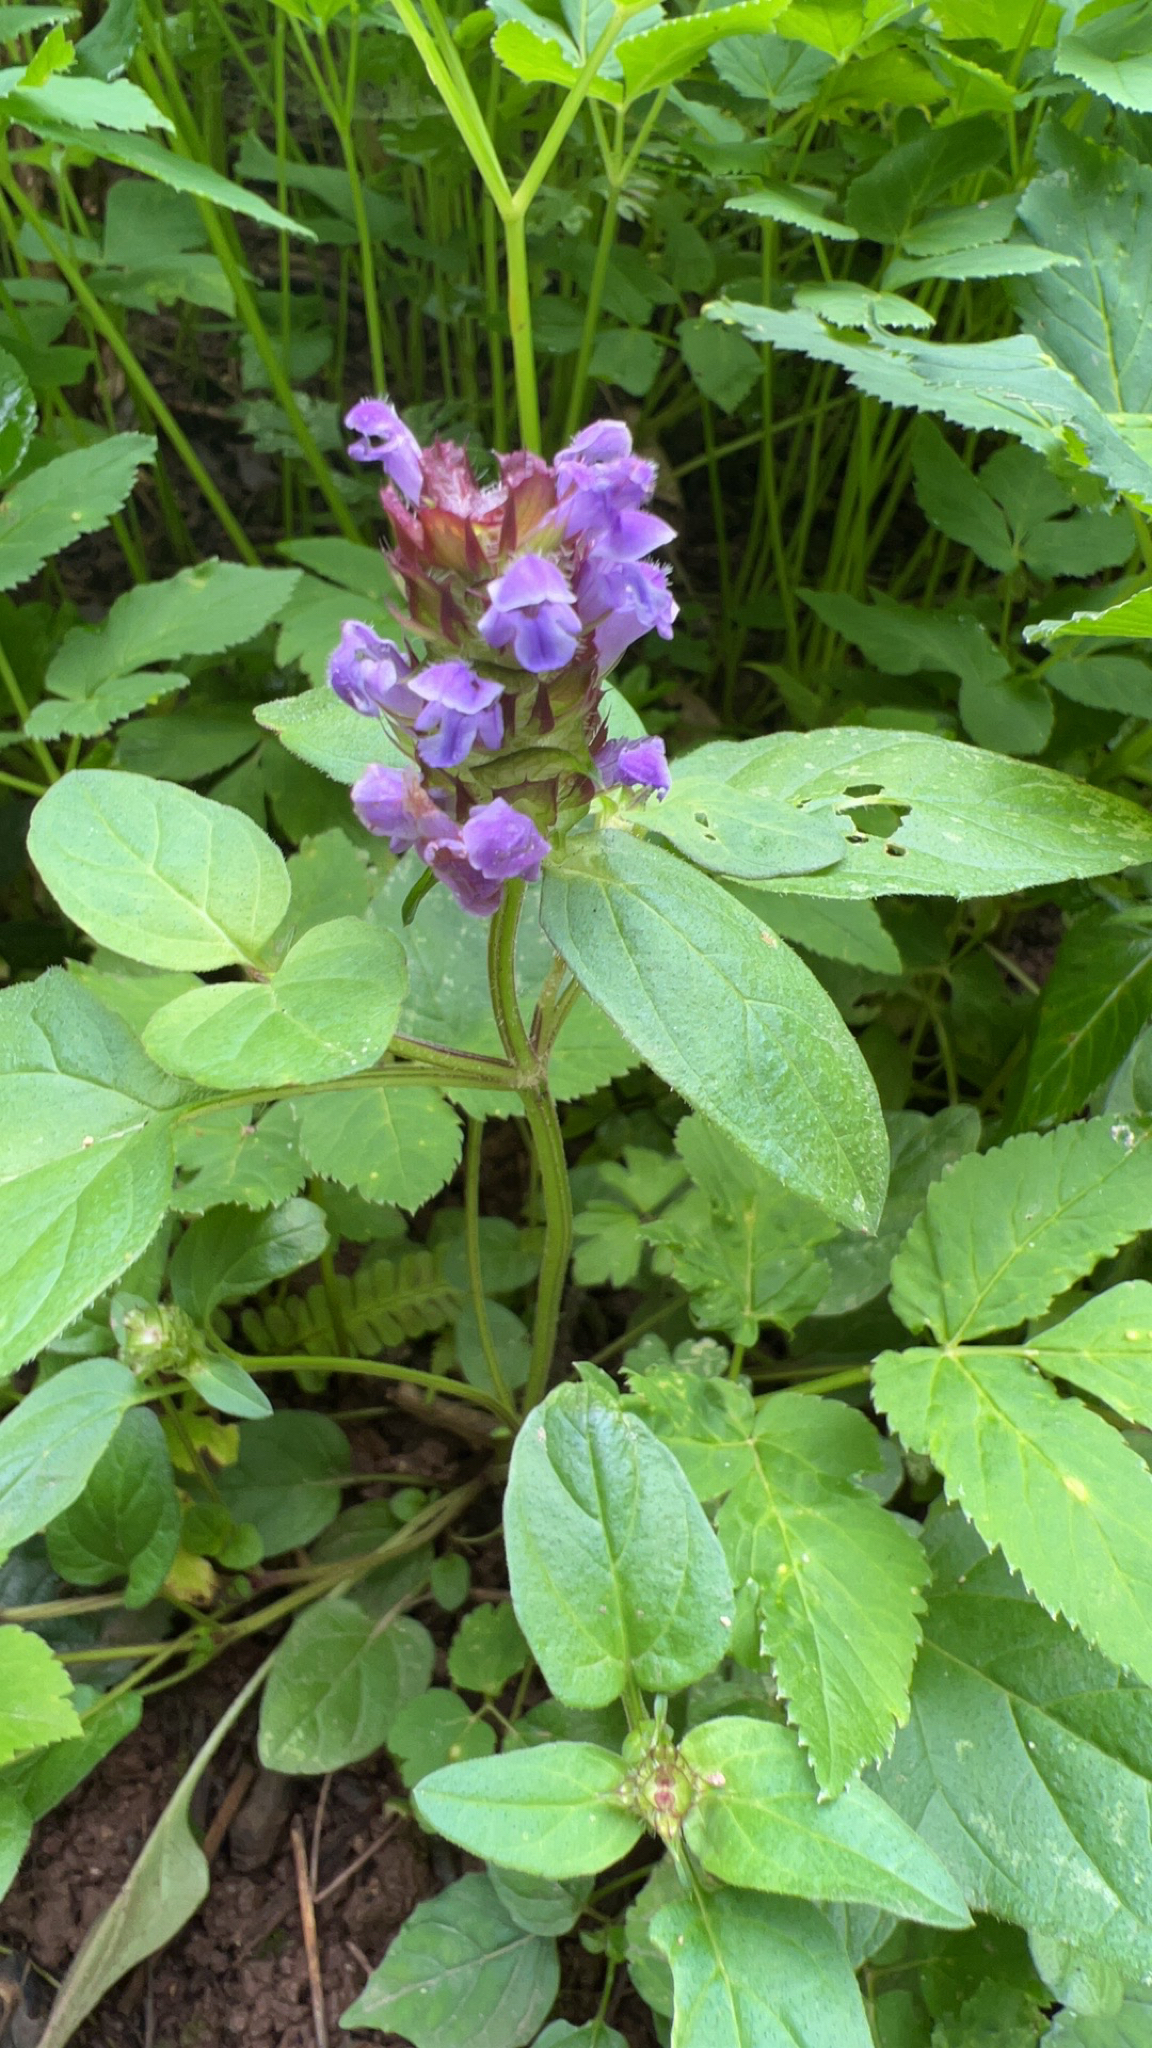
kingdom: Plantae
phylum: Tracheophyta
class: Magnoliopsida
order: Lamiales
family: Lamiaceae
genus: Prunella
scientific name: Prunella vulgaris
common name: Heal-all
